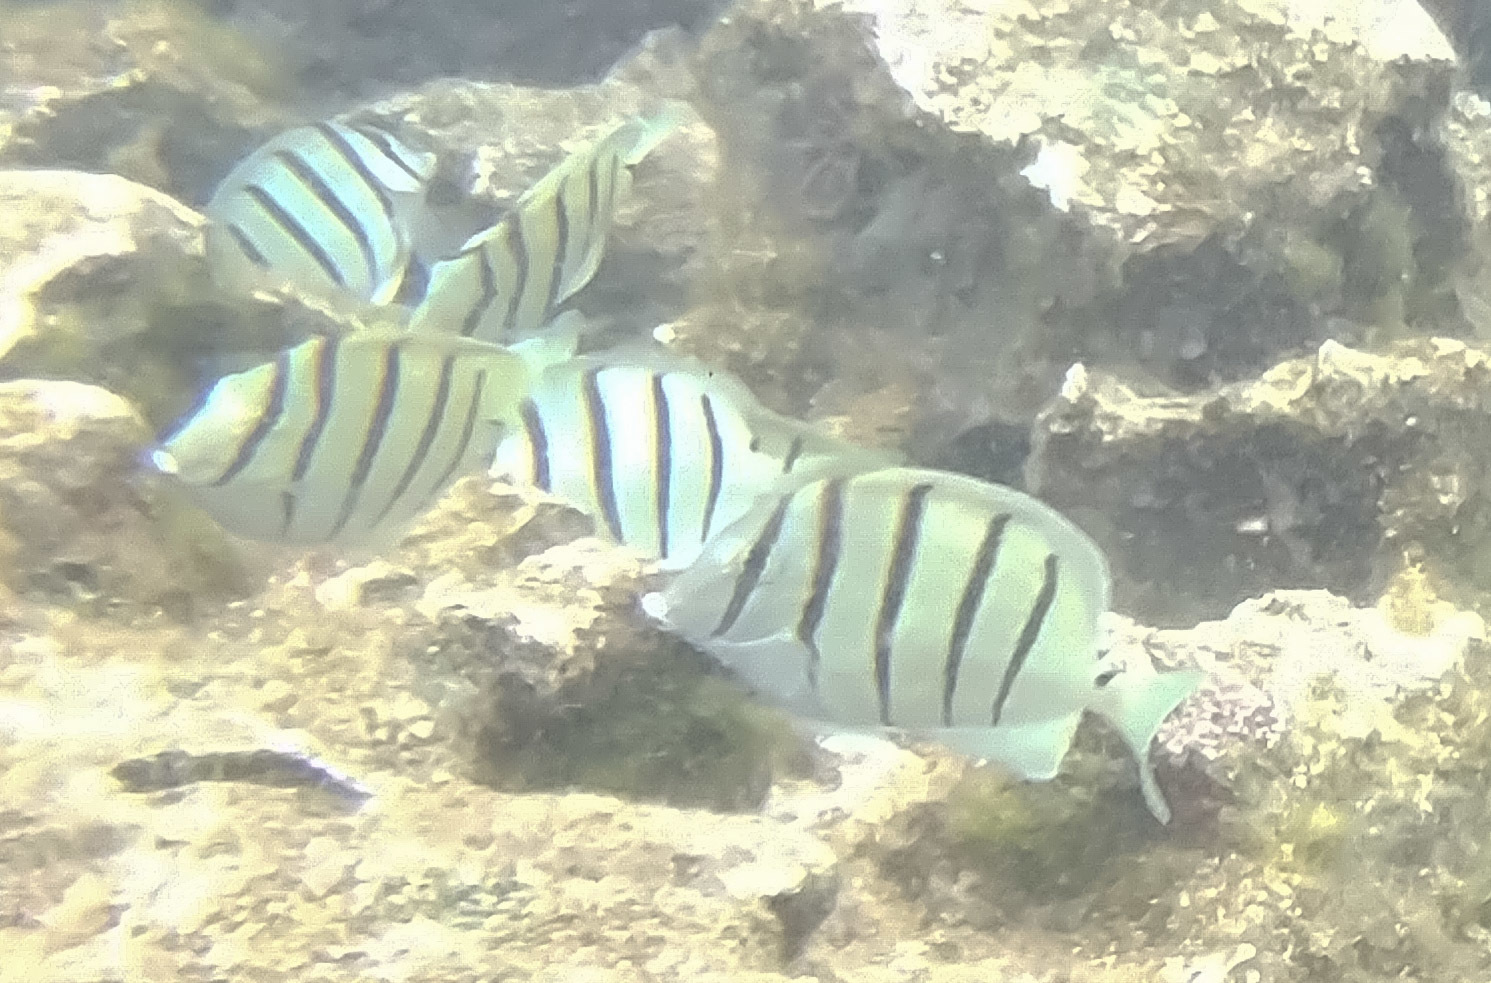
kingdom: Animalia
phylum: Chordata
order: Perciformes
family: Acanthuridae
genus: Acanthurus
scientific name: Acanthurus triostegus
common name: Convict surgeonfish
